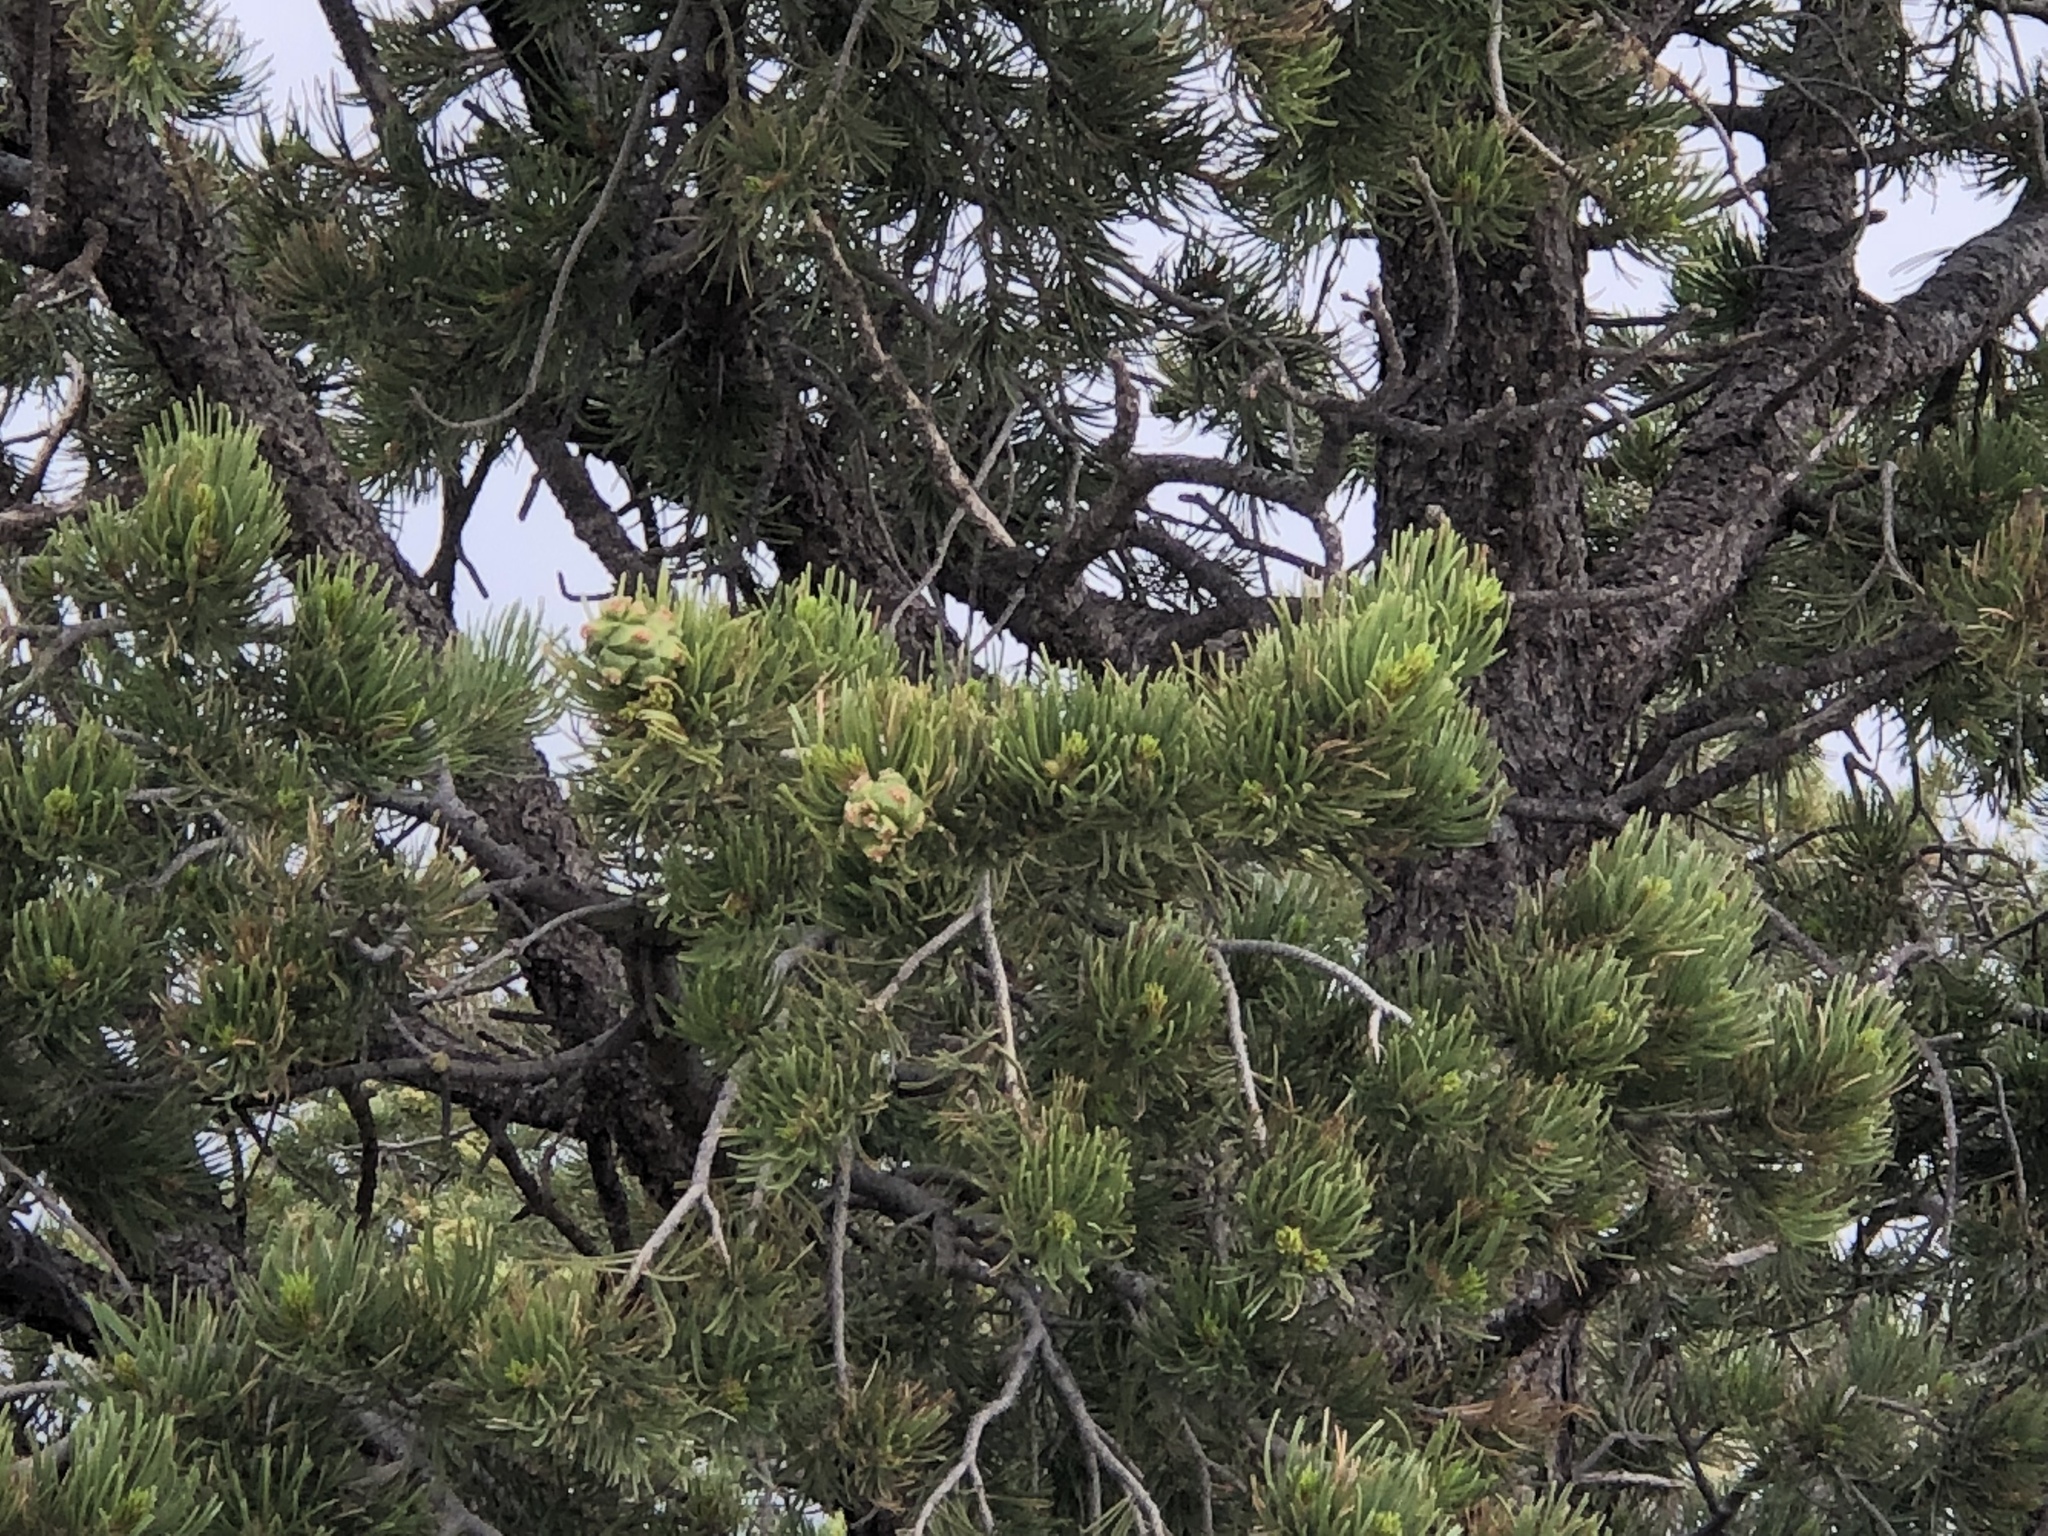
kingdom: Plantae
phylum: Tracheophyta
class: Pinopsida
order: Pinales
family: Pinaceae
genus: Pinus
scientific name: Pinus edulis
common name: Colorado pinyon
